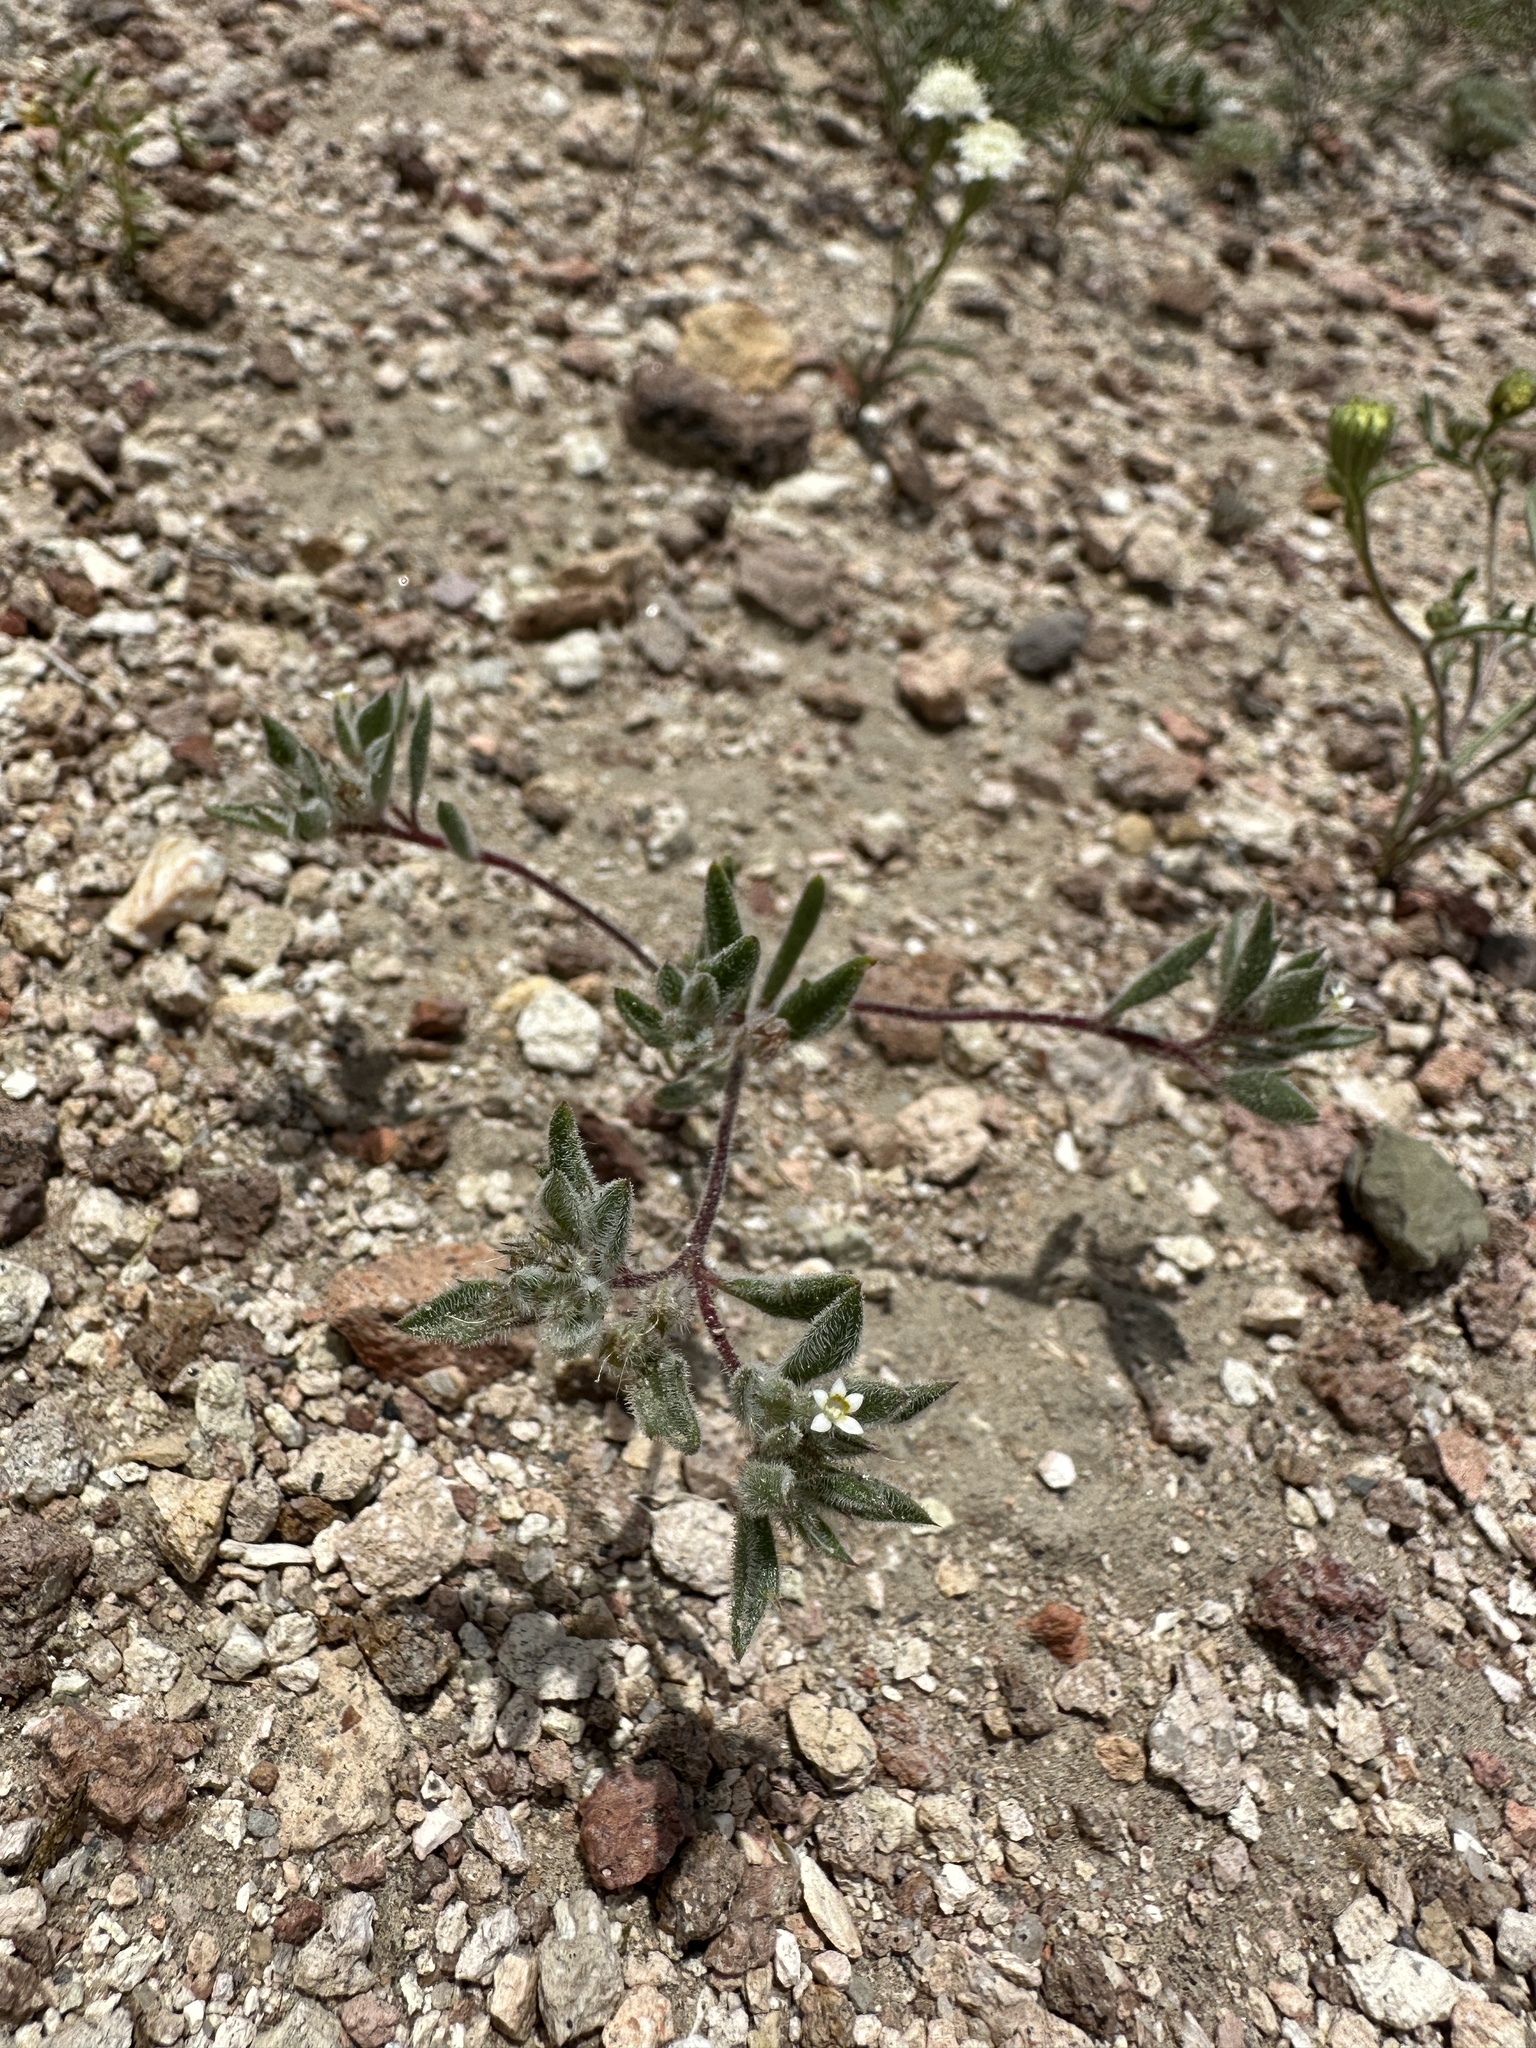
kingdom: Plantae
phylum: Tracheophyta
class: Magnoliopsida
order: Ericales
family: Polemoniaceae
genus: Loeseliastrum
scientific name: Loeseliastrum depressum
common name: Depressed ipomopsis
